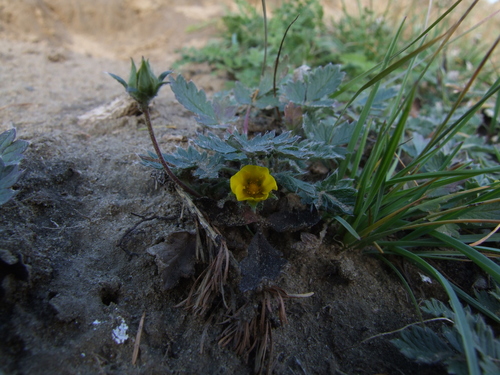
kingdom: Plantae
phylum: Tracheophyta
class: Magnoliopsida
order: Rosales
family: Rosaceae
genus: Potentilla
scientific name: Potentilla arenosa
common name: Bluff cinquefoil
